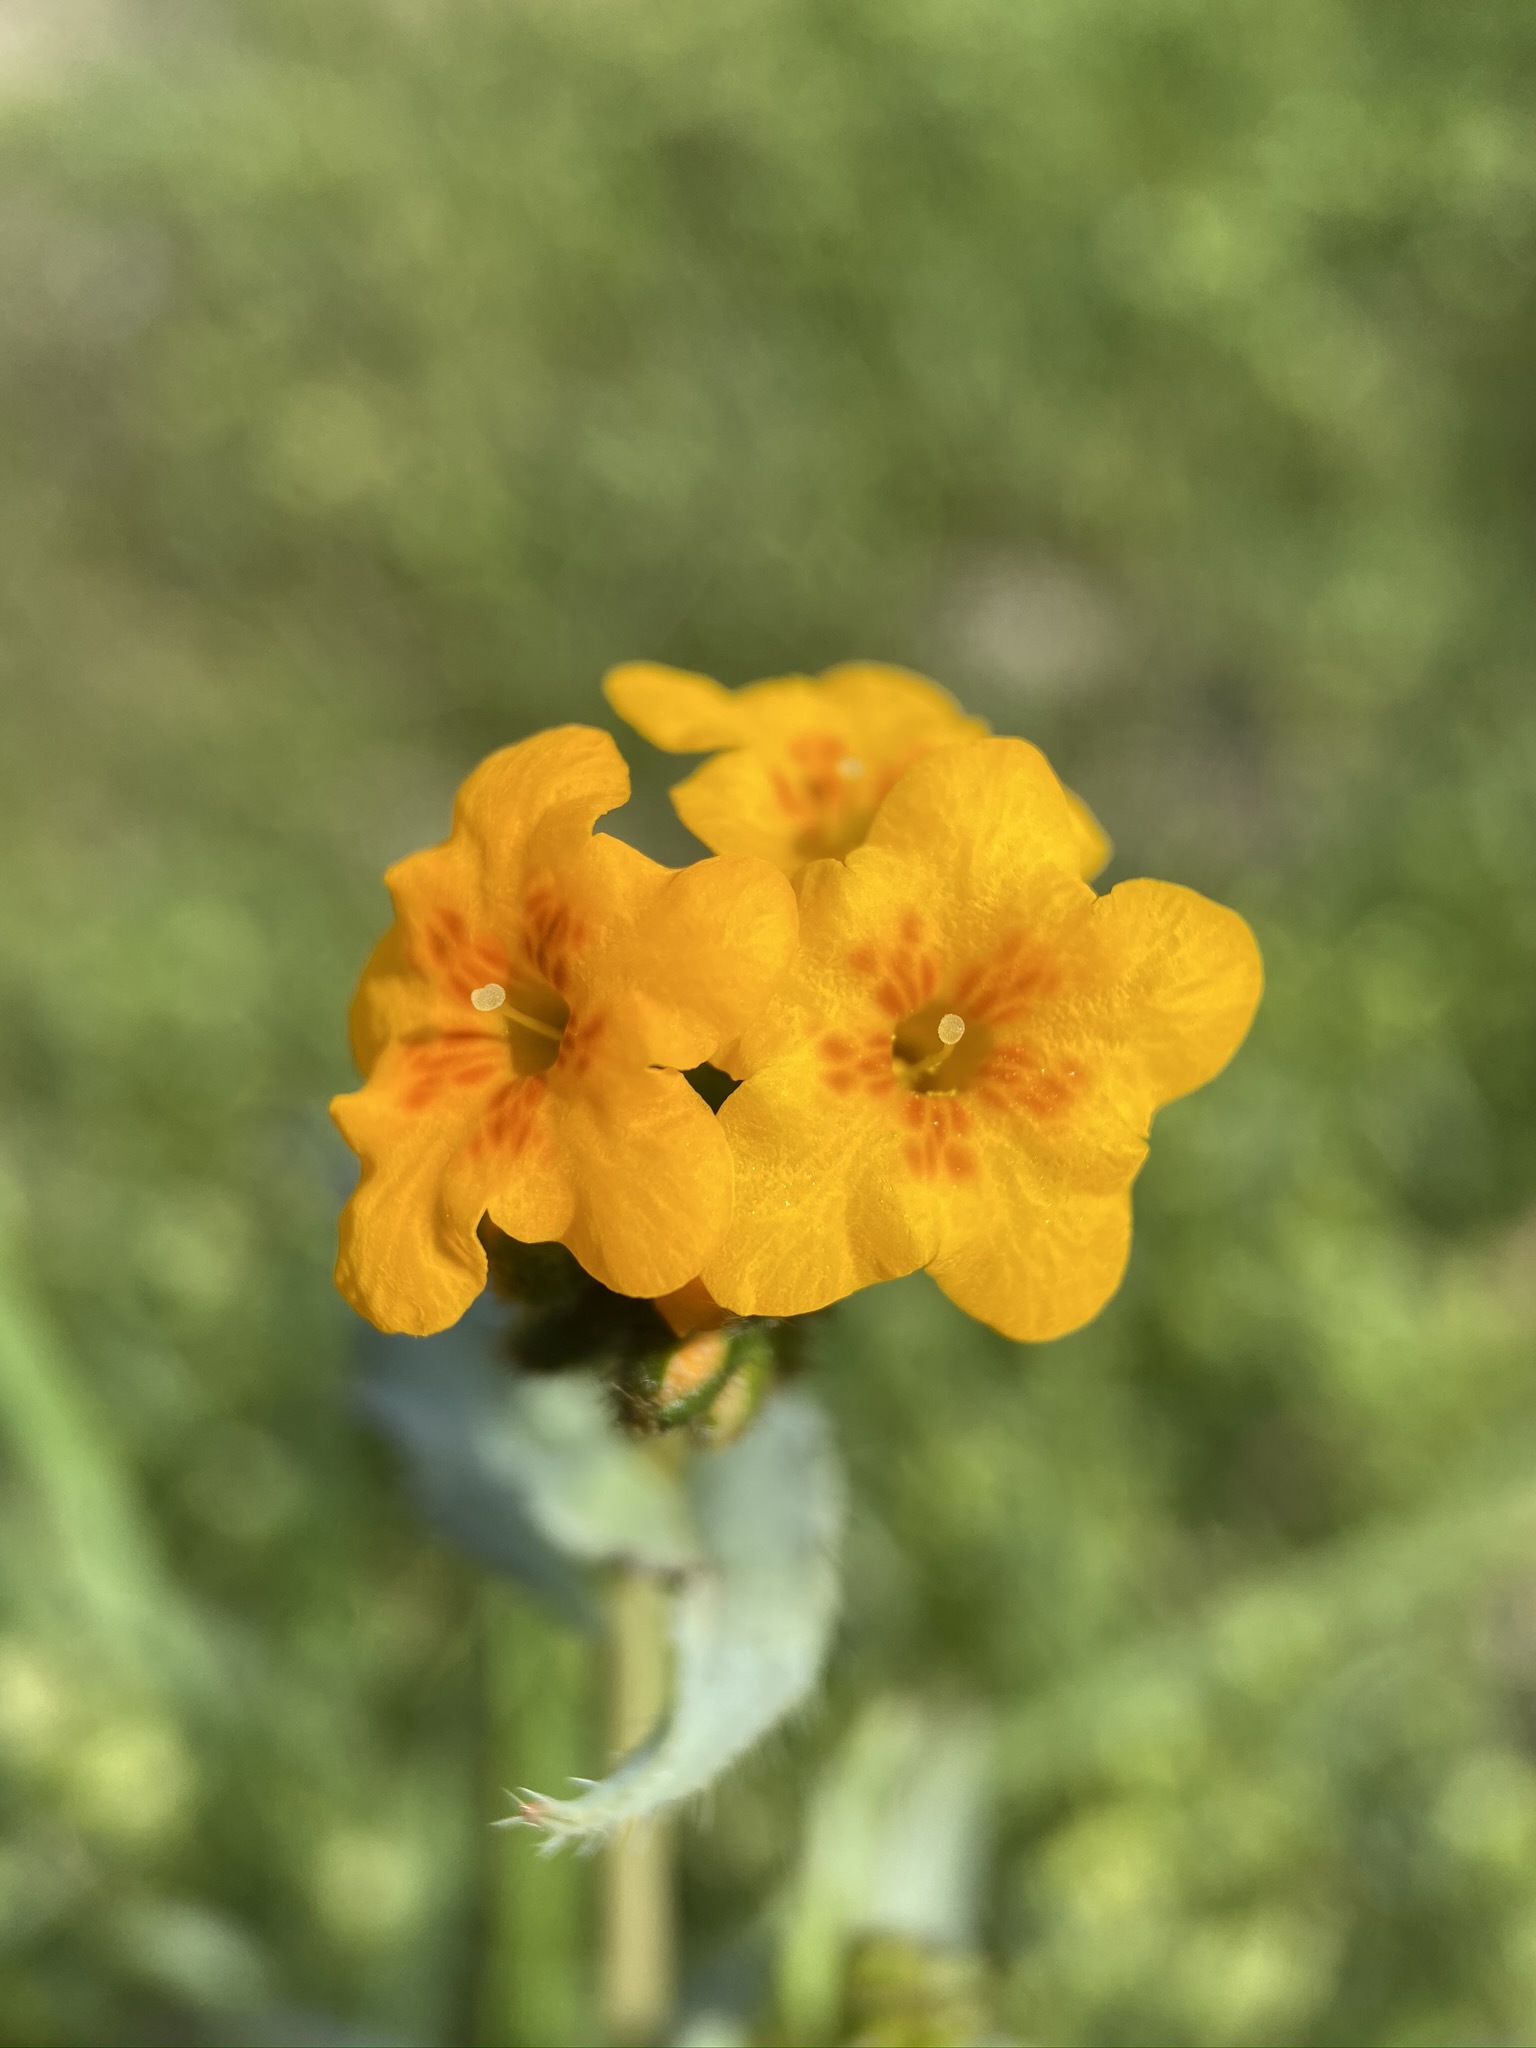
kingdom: Plantae
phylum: Tracheophyta
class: Magnoliopsida
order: Boraginales
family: Boraginaceae
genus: Amsinckia
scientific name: Amsinckia vernicosa
